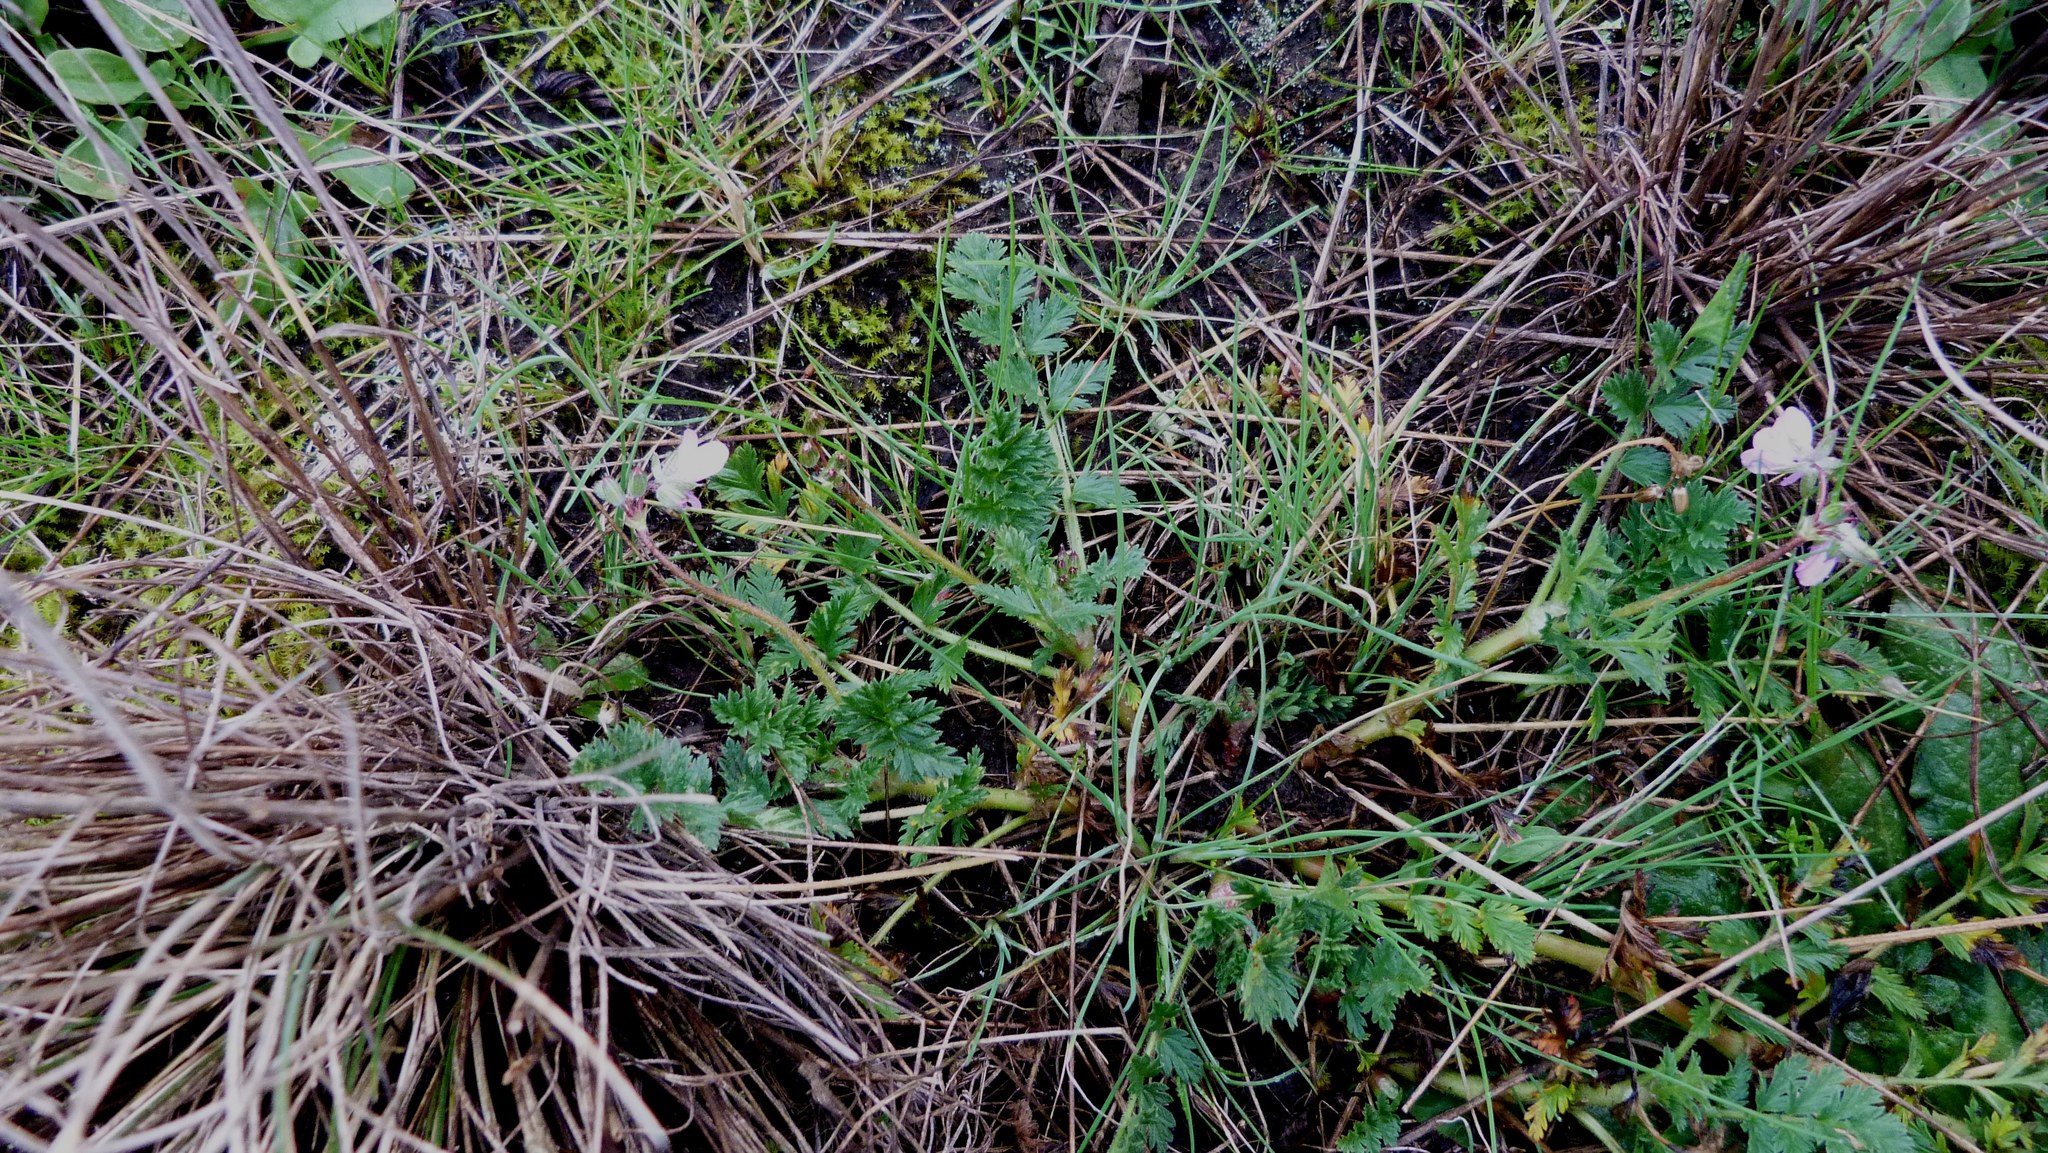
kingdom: Plantae
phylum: Tracheophyta
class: Magnoliopsida
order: Geraniales
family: Geraniaceae
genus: Erodium
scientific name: Erodium cicutarium
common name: Common stork's-bill
